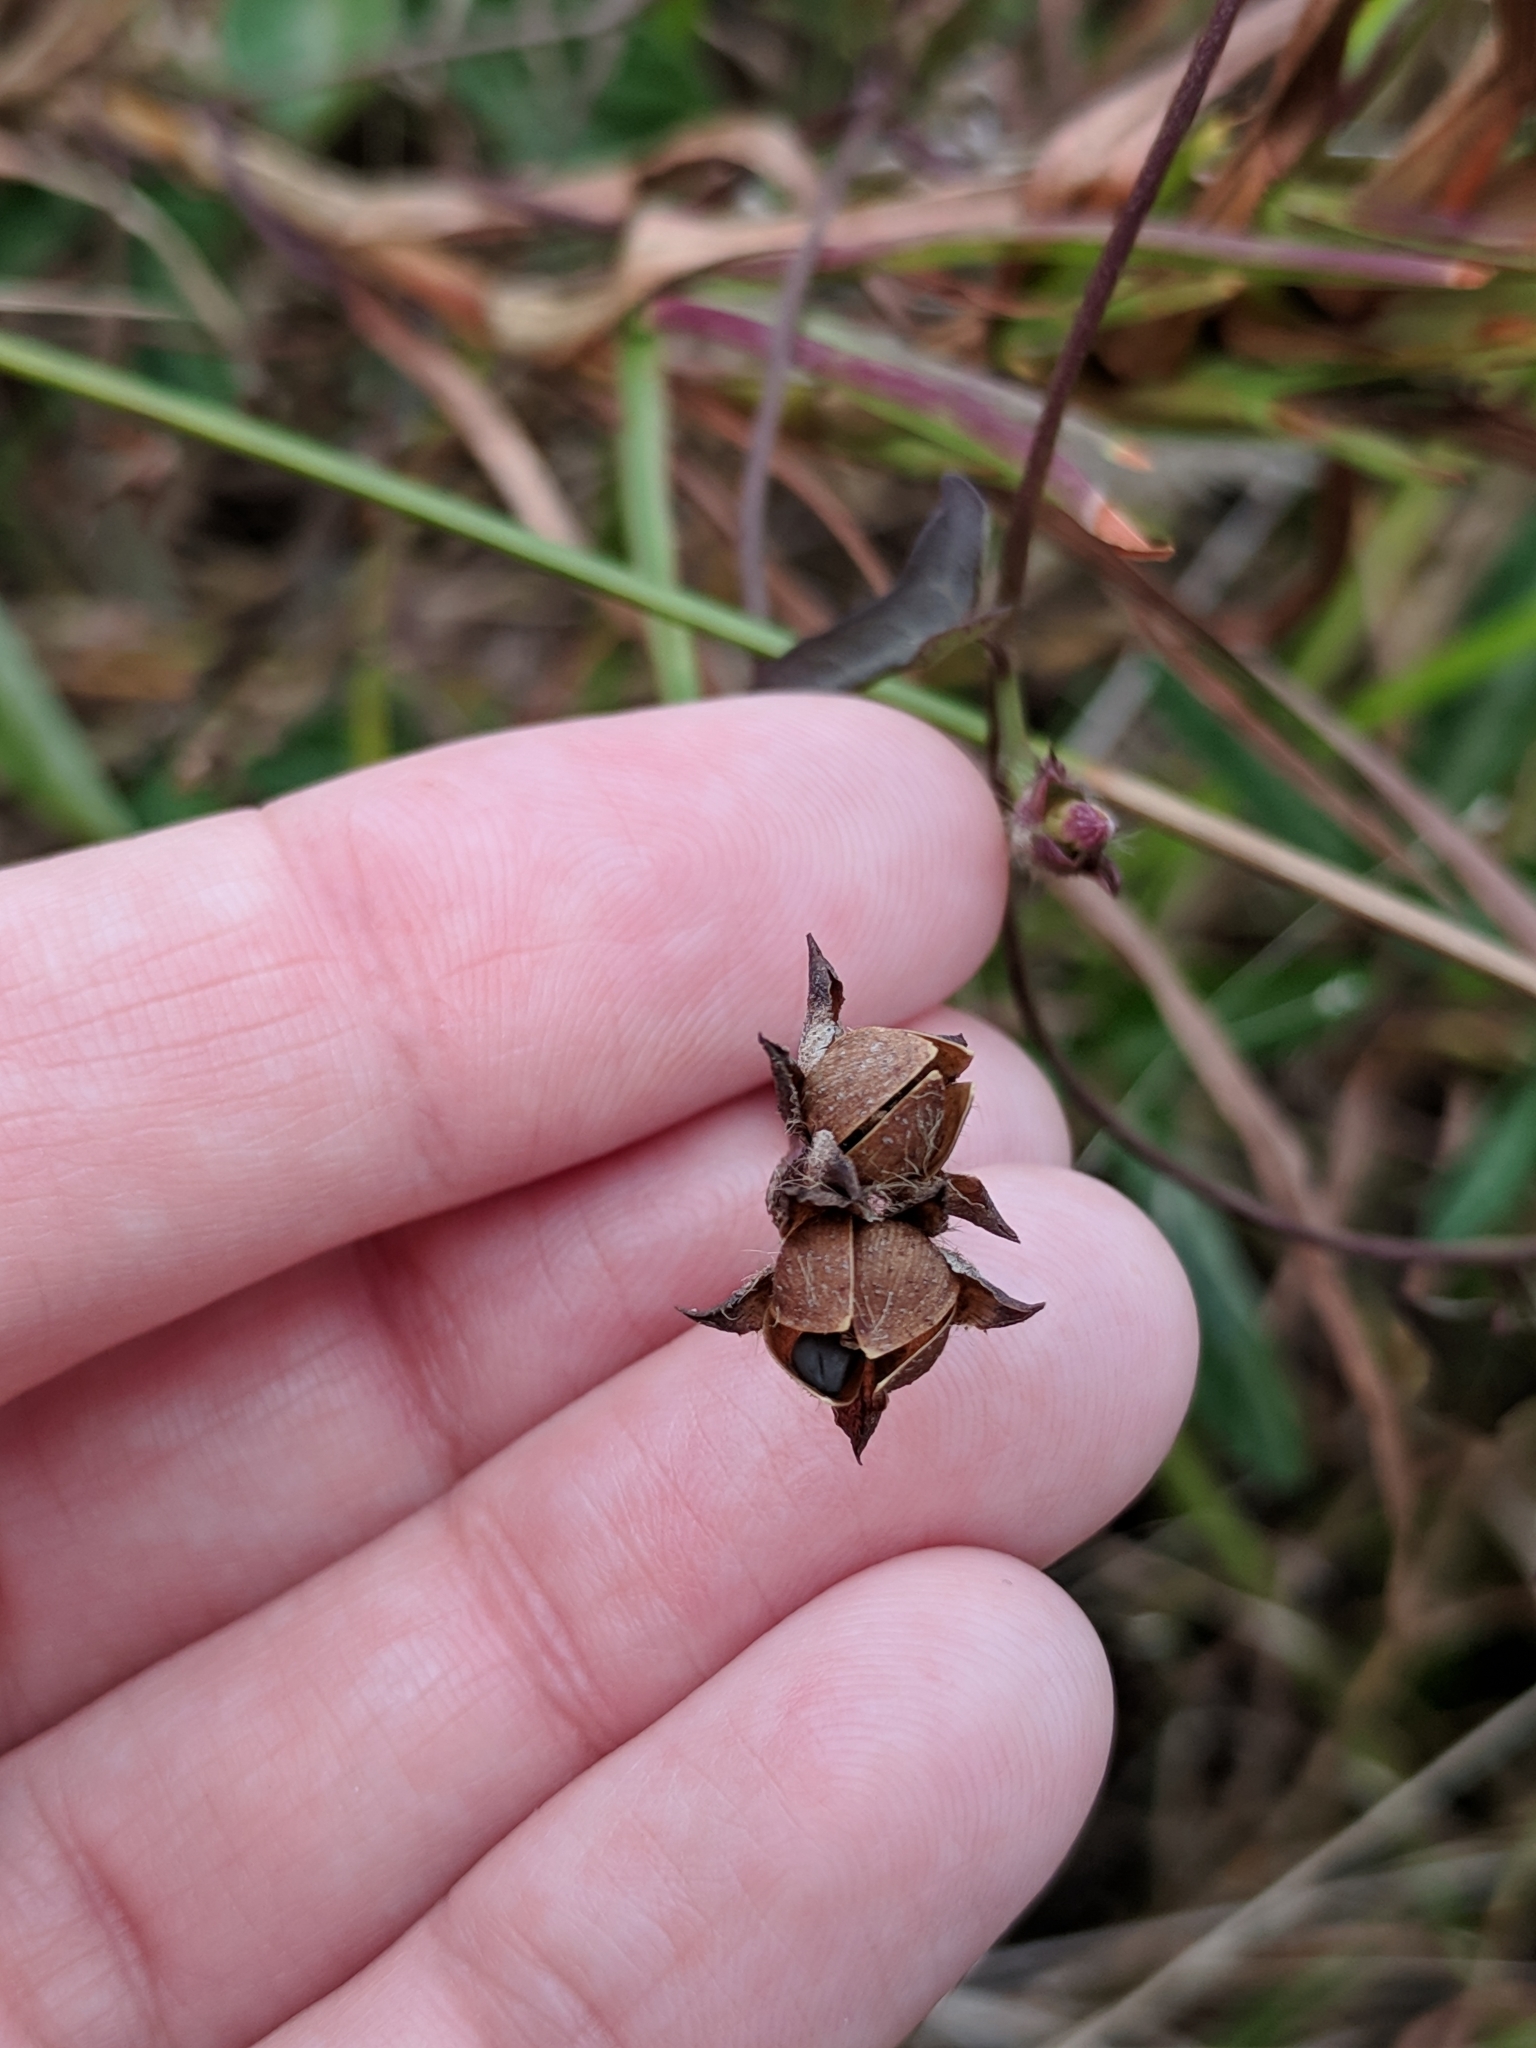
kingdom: Plantae
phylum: Tracheophyta
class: Magnoliopsida
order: Solanales
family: Convolvulaceae
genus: Ipomoea
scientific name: Ipomoea triloba
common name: Little-bell
